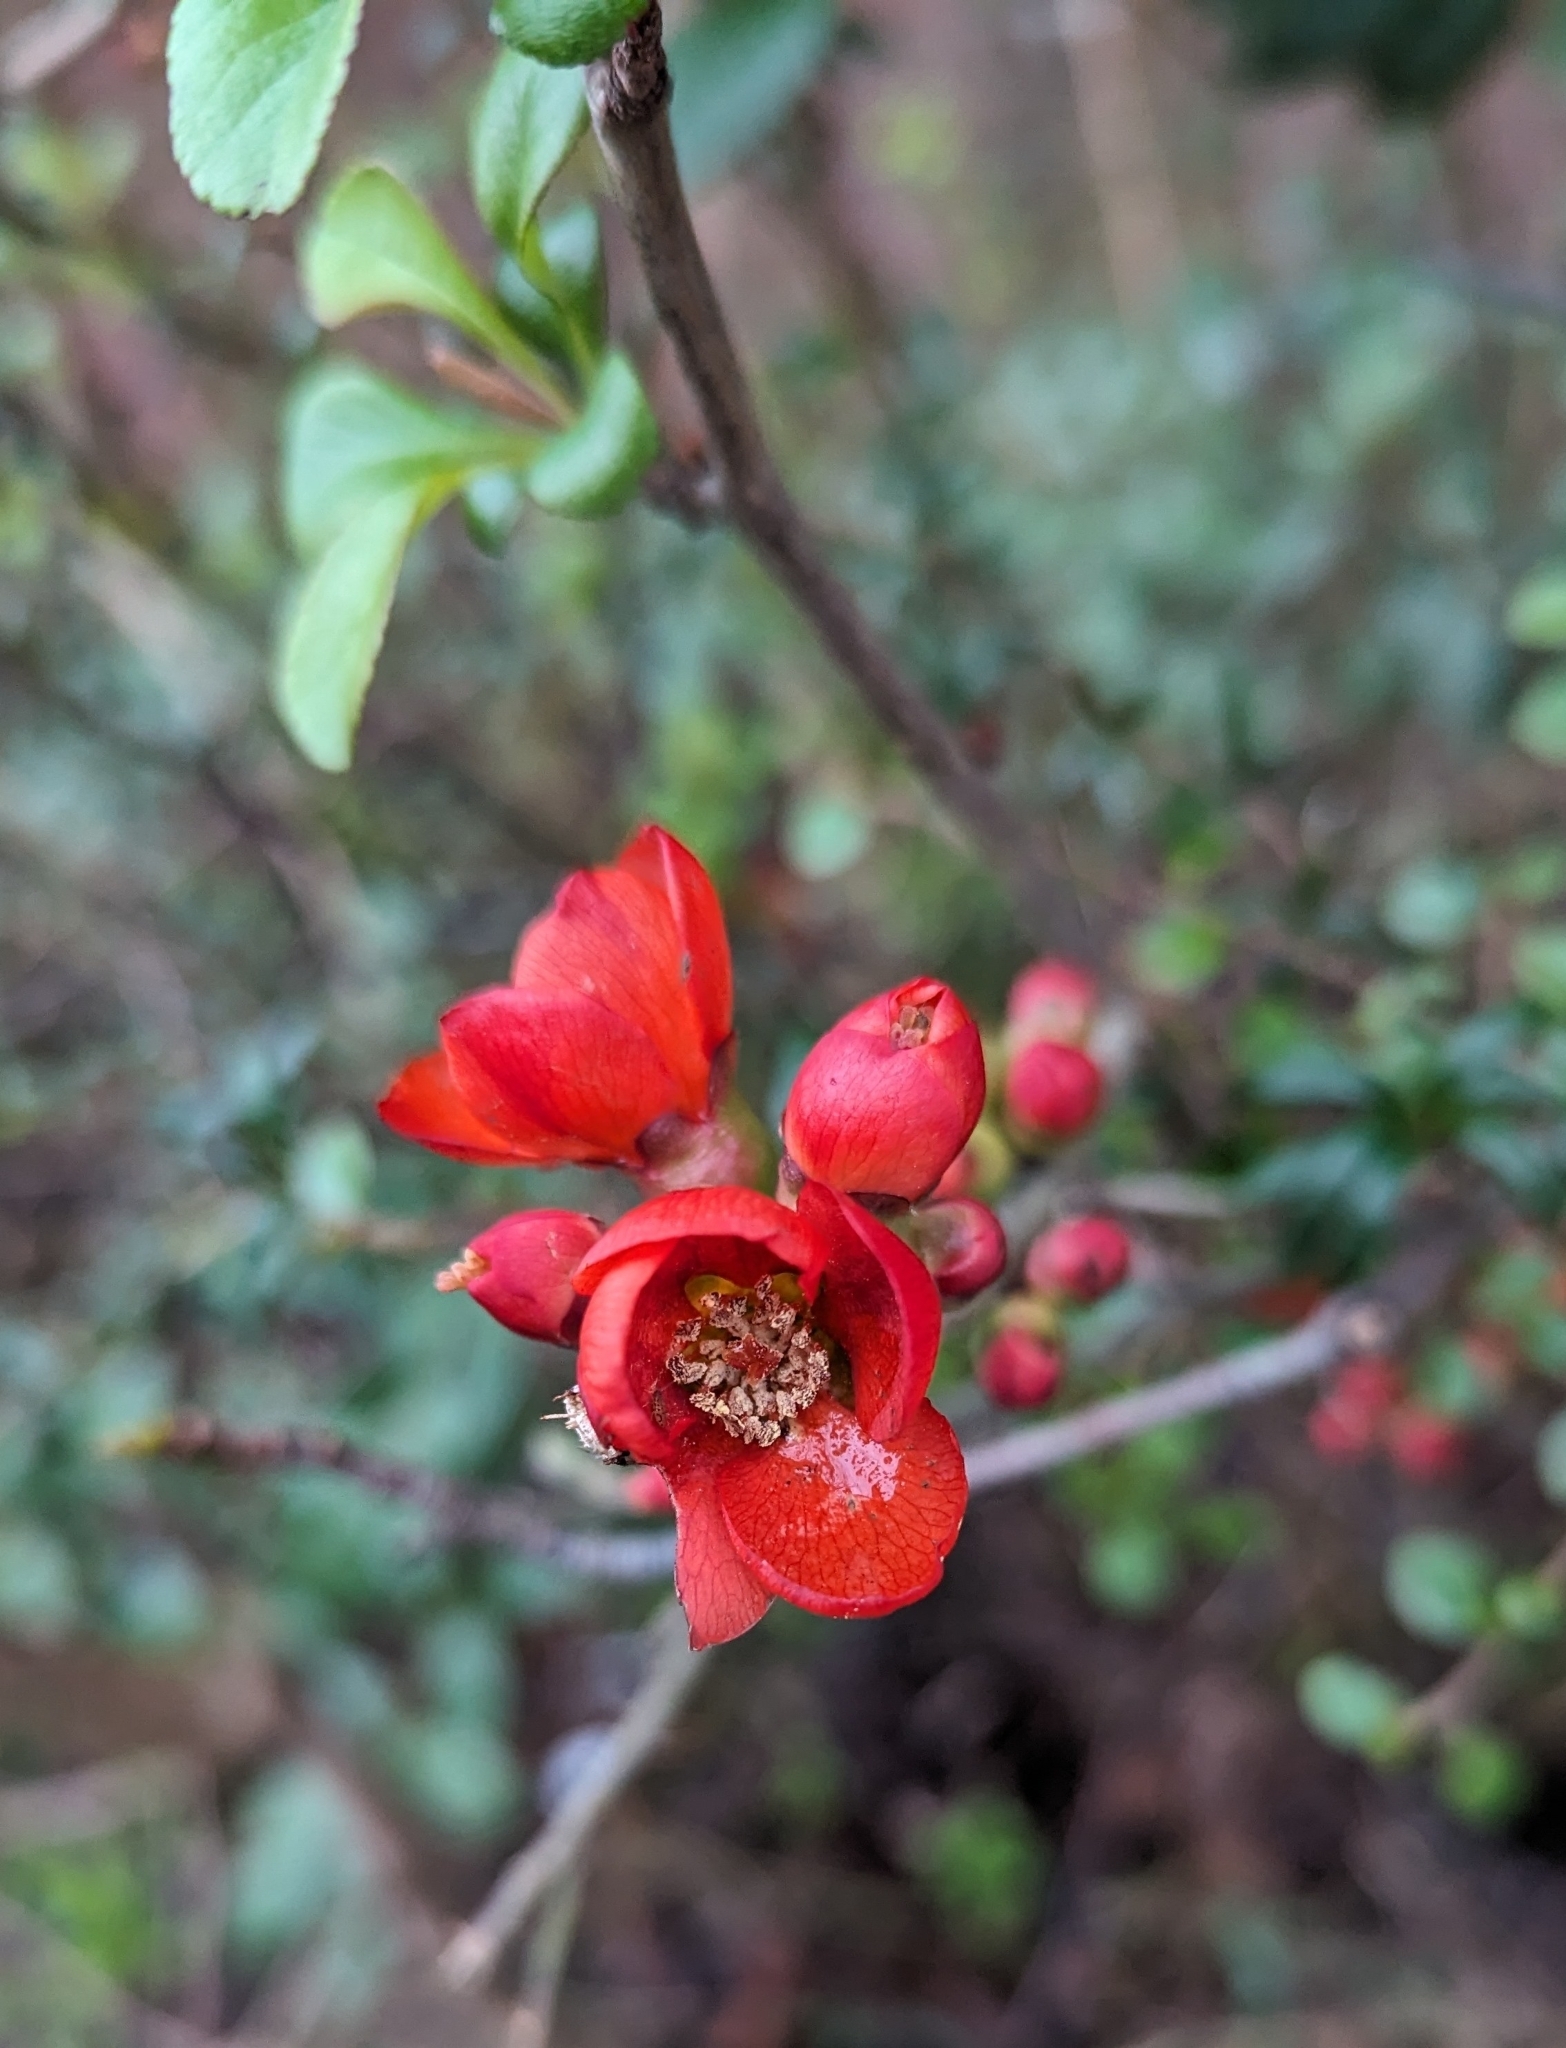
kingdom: Plantae
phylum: Tracheophyta
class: Magnoliopsida
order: Rosales
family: Rosaceae
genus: Chaenomeles
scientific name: Chaenomeles speciosa
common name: Japanese quince
